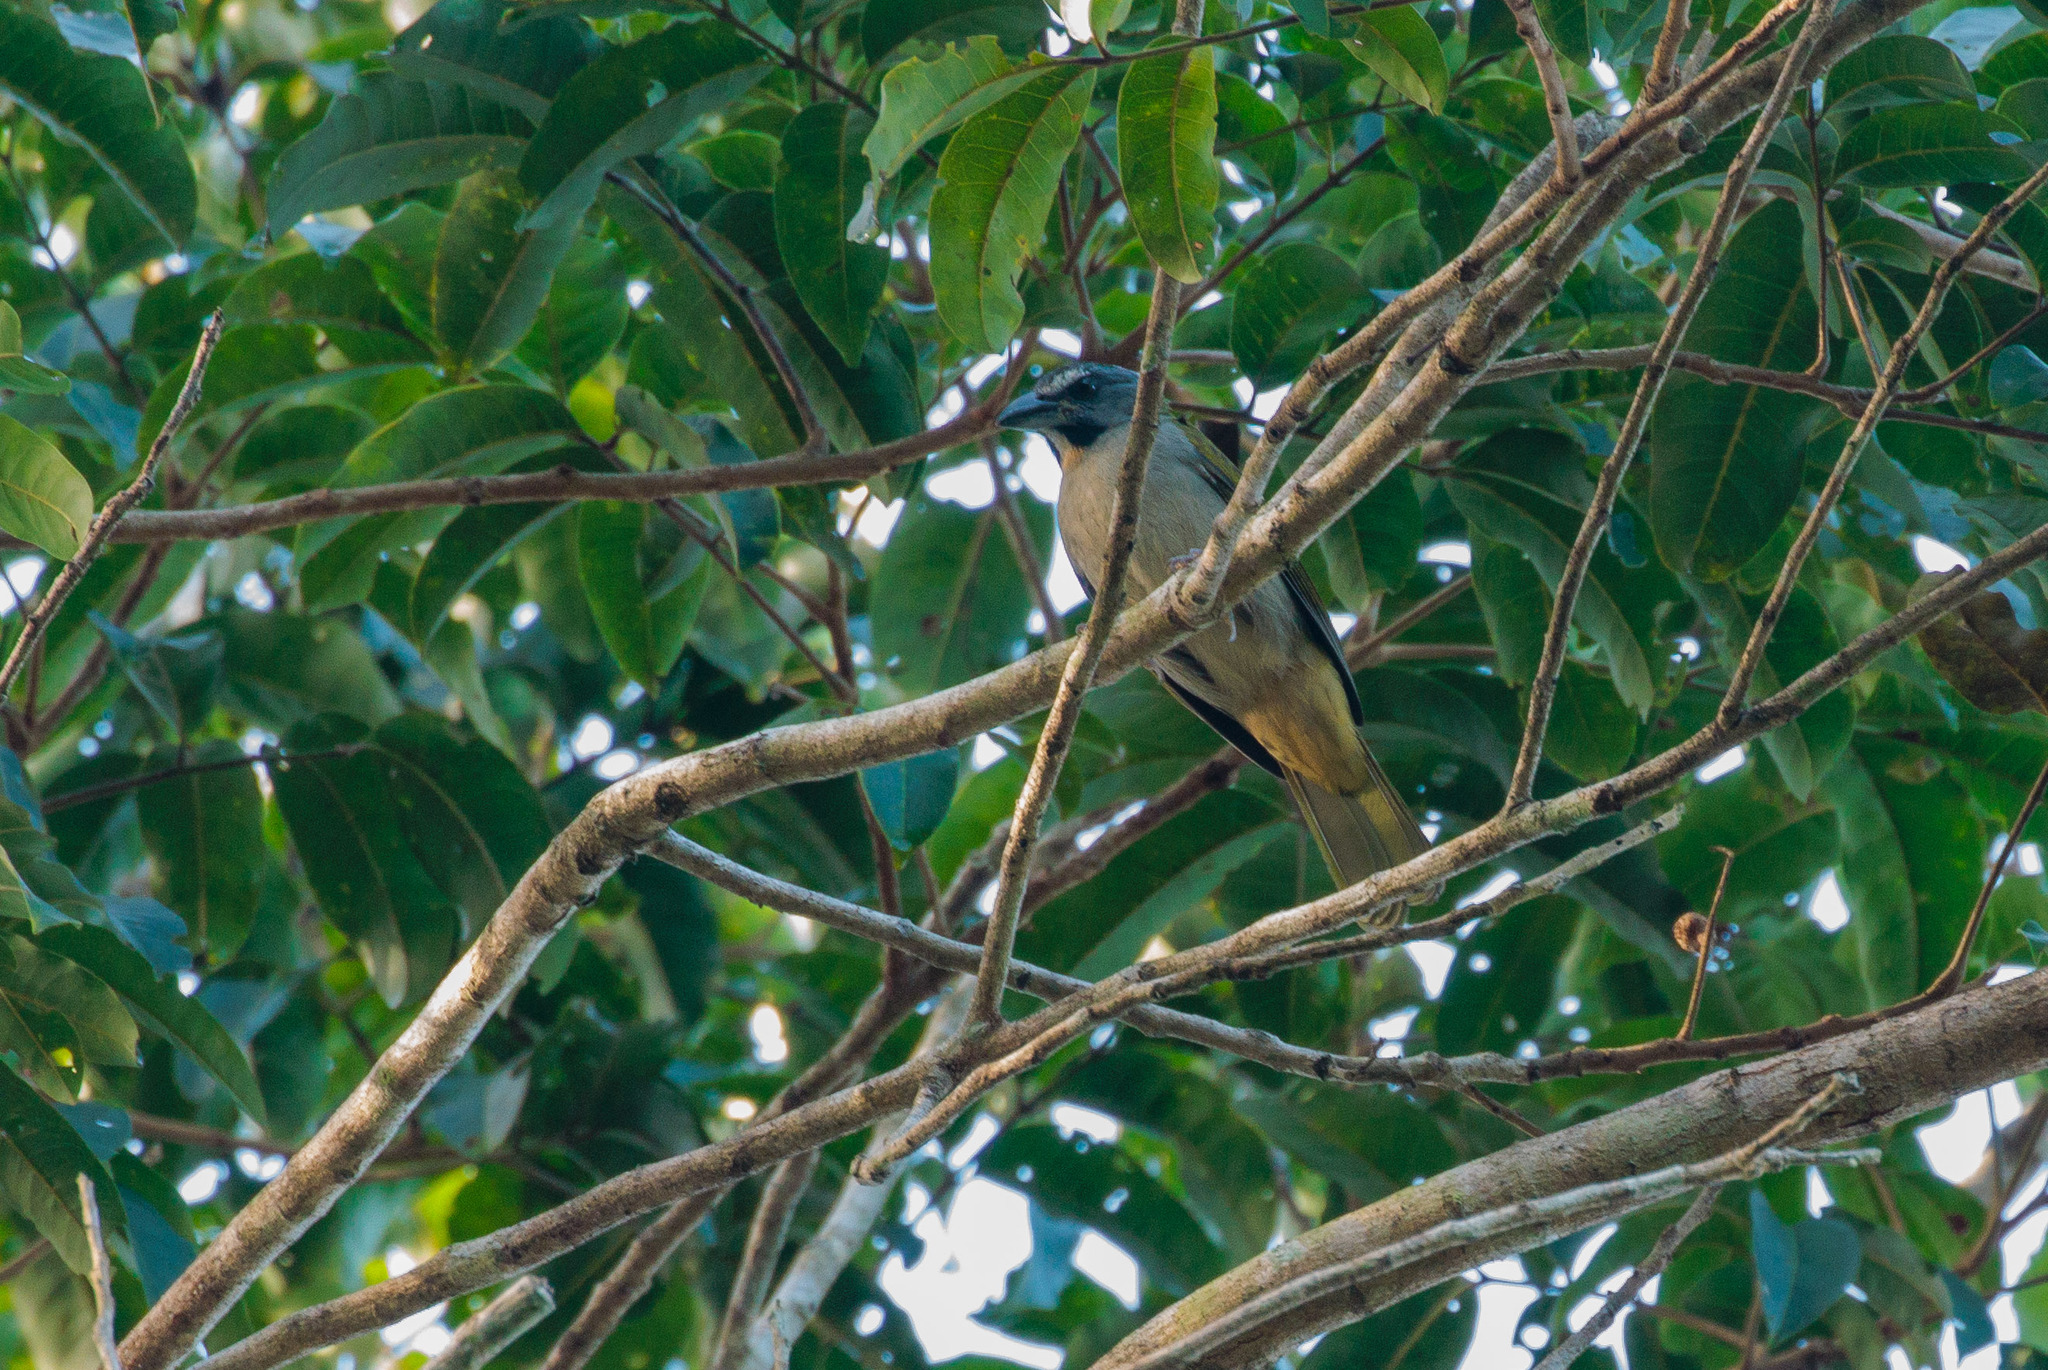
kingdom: Animalia
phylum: Chordata
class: Aves
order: Passeriformes
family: Thraupidae
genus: Saltator
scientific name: Saltator maximus
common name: Buff-throated saltator
